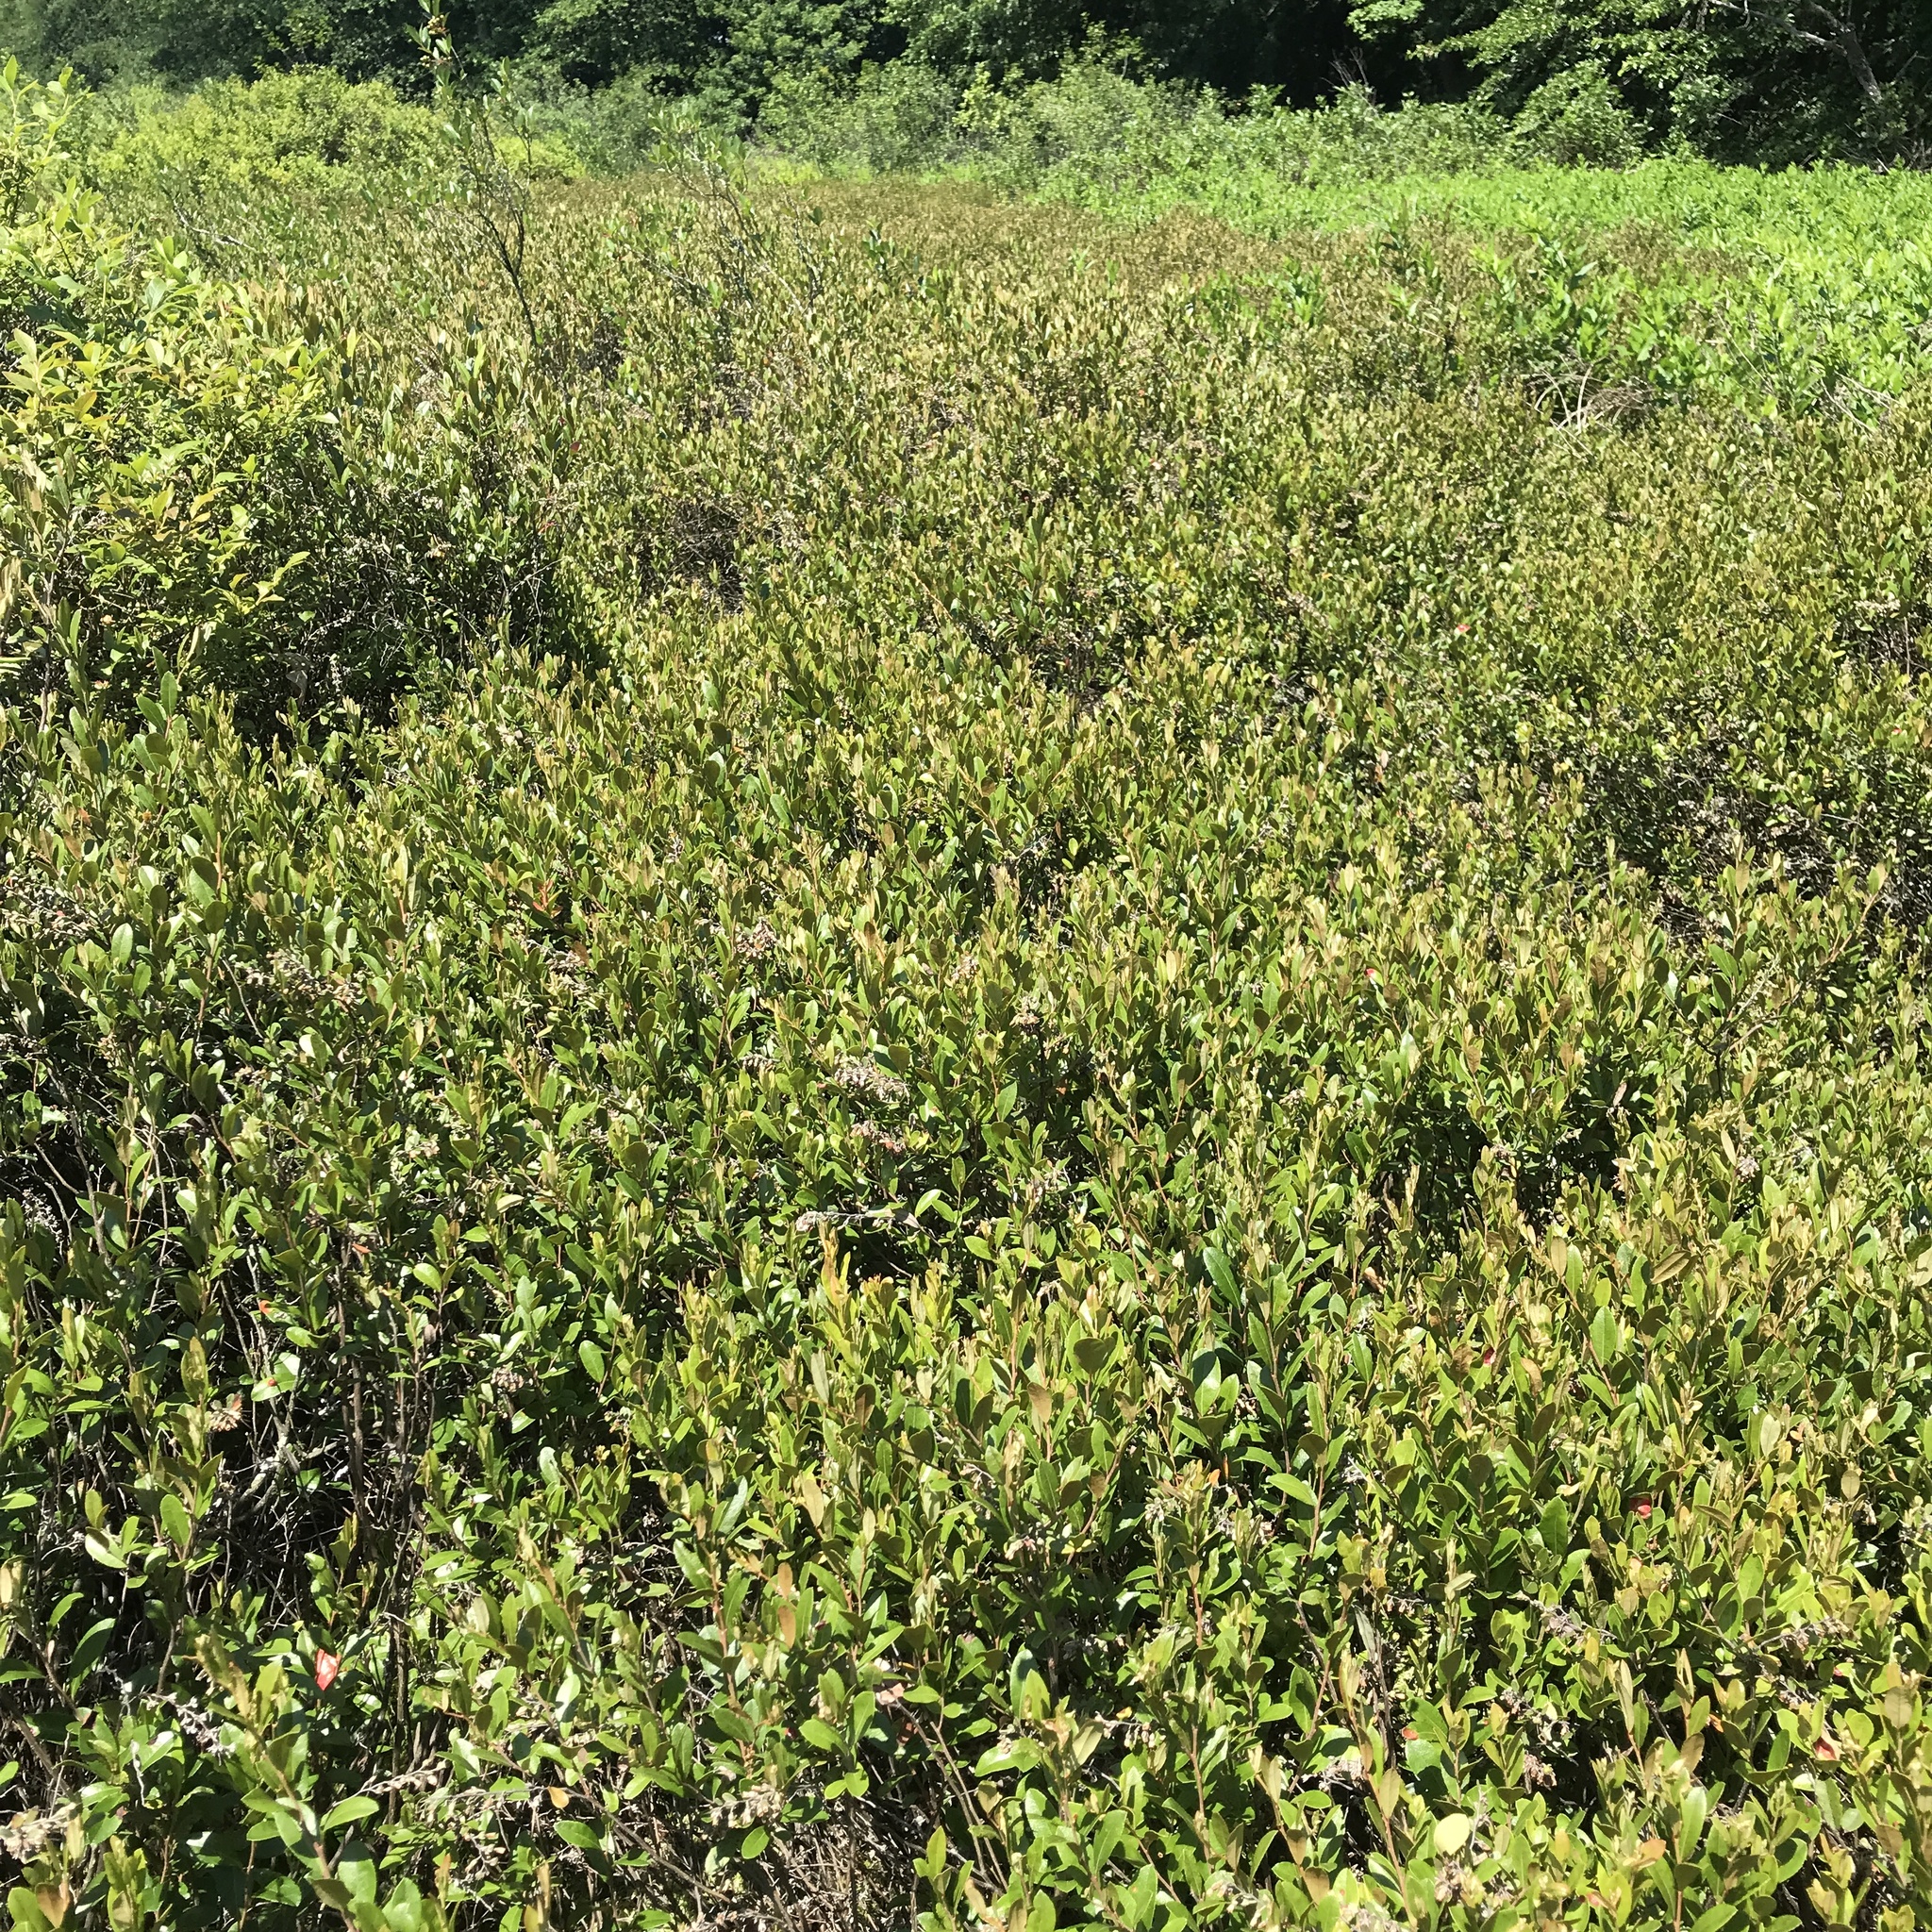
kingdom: Plantae
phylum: Tracheophyta
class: Magnoliopsida
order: Ericales
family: Ericaceae
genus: Chamaedaphne
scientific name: Chamaedaphne calyculata
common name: Leatherleaf
